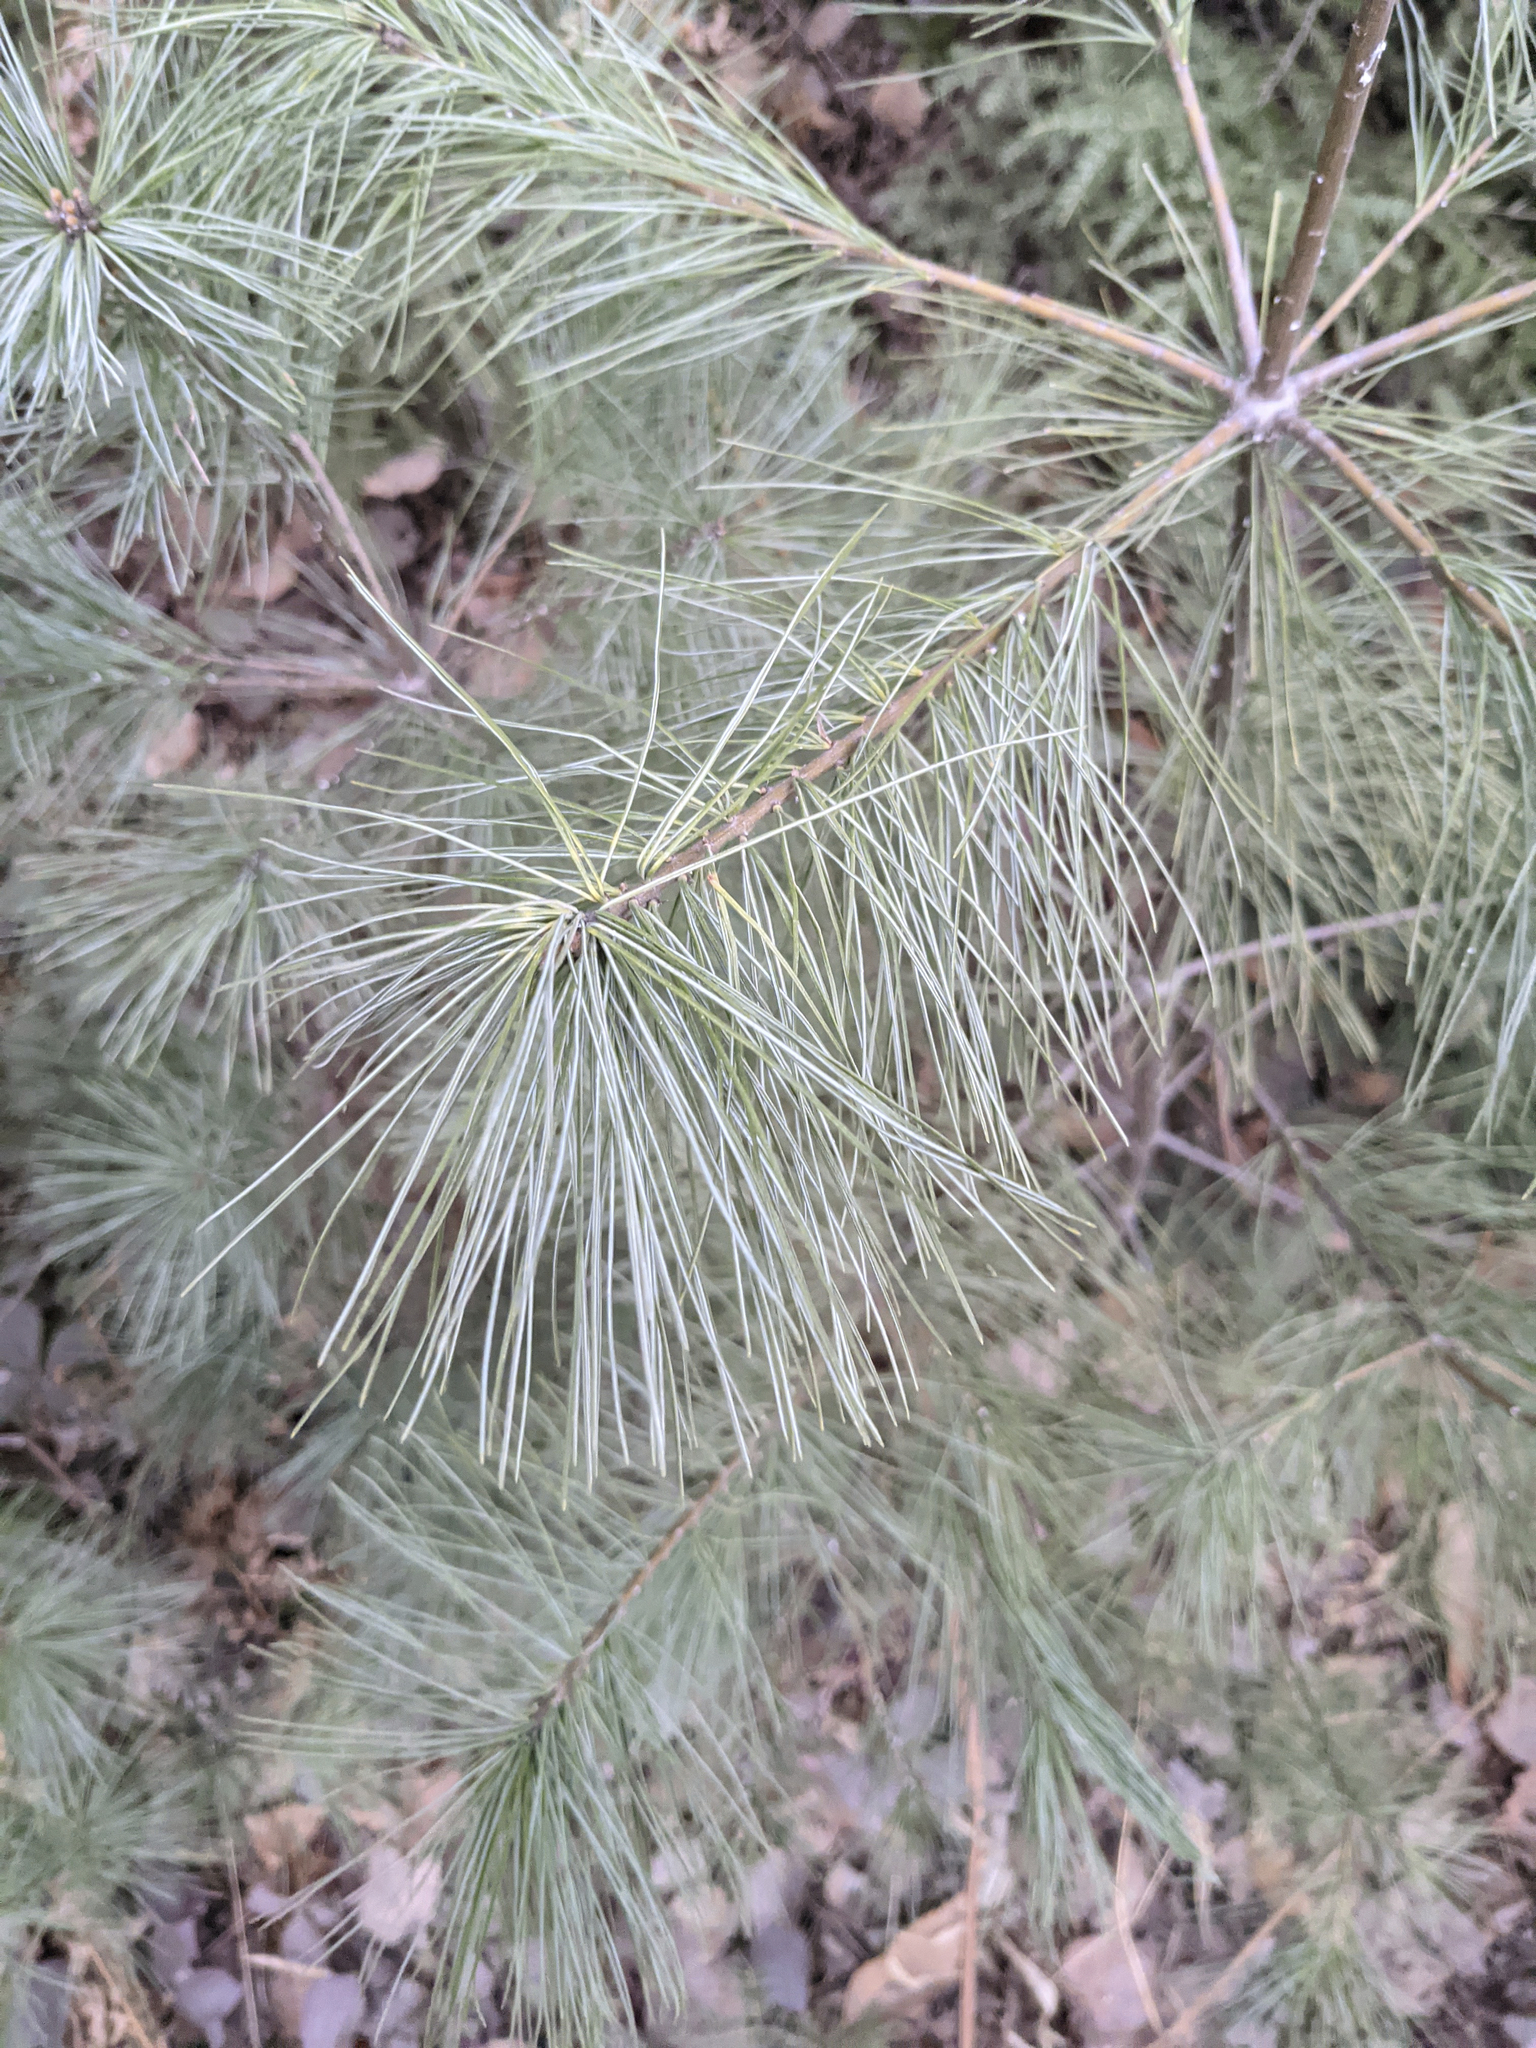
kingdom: Plantae
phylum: Tracheophyta
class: Pinopsida
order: Pinales
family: Pinaceae
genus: Pinus
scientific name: Pinus strobus
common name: Weymouth pine
